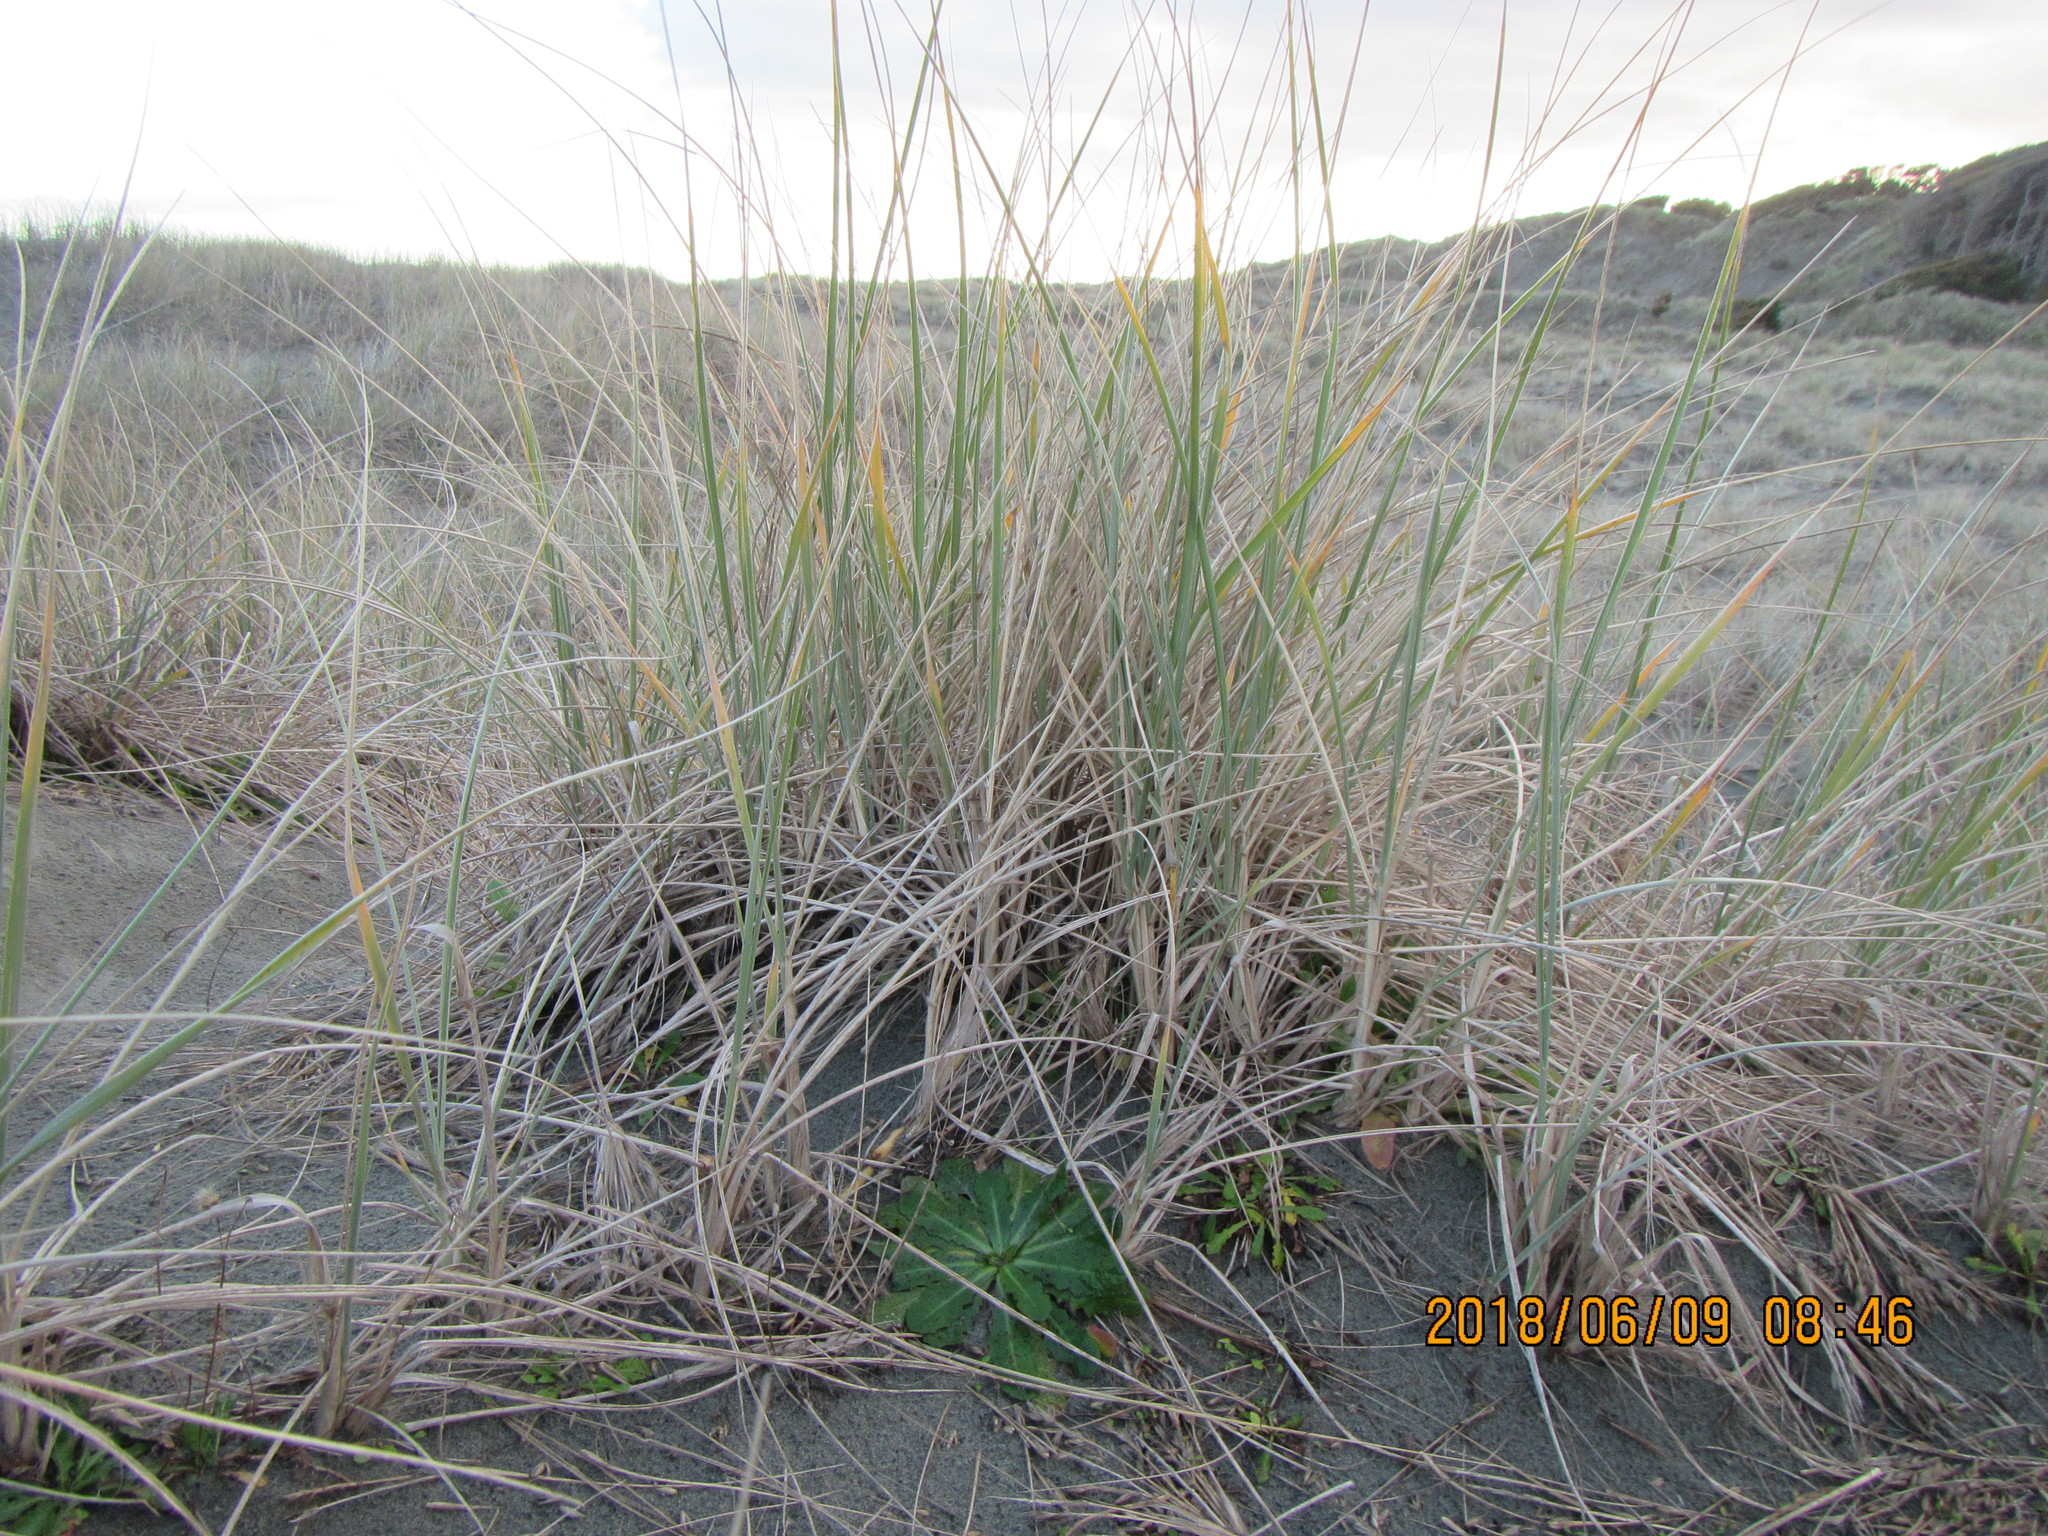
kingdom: Plantae
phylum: Tracheophyta
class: Liliopsida
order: Poales
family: Poaceae
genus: Spinifex
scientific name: Spinifex sericeus
